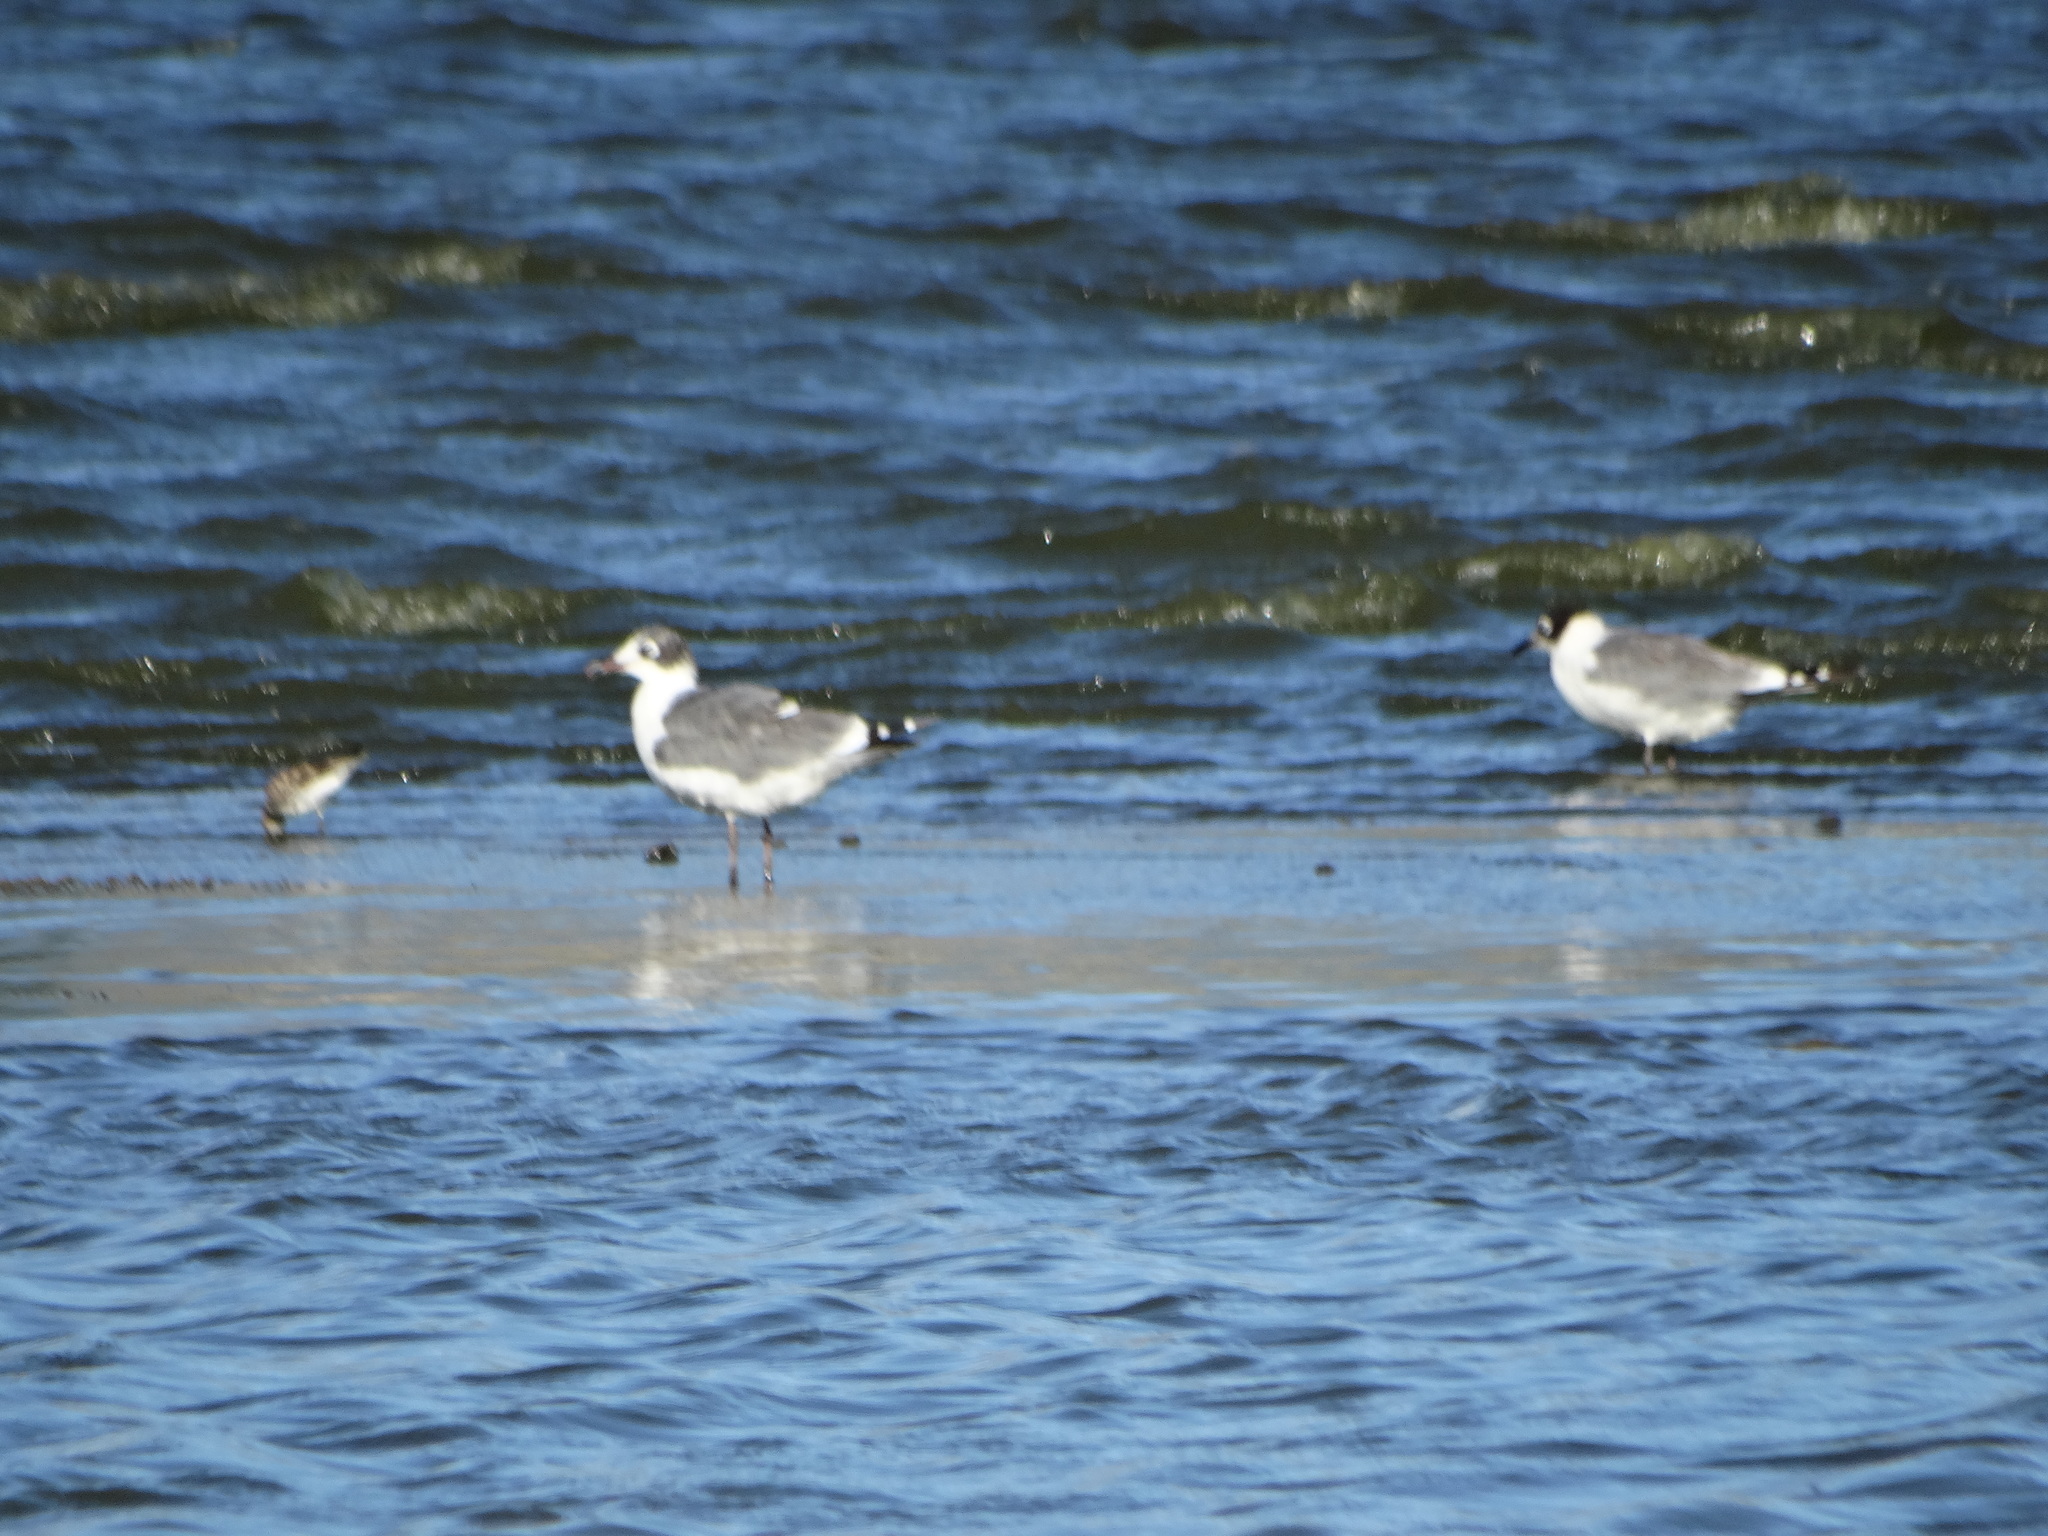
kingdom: Animalia
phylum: Chordata
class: Aves
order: Charadriiformes
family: Laridae
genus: Leucophaeus
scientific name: Leucophaeus pipixcan
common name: Franklin's gull
